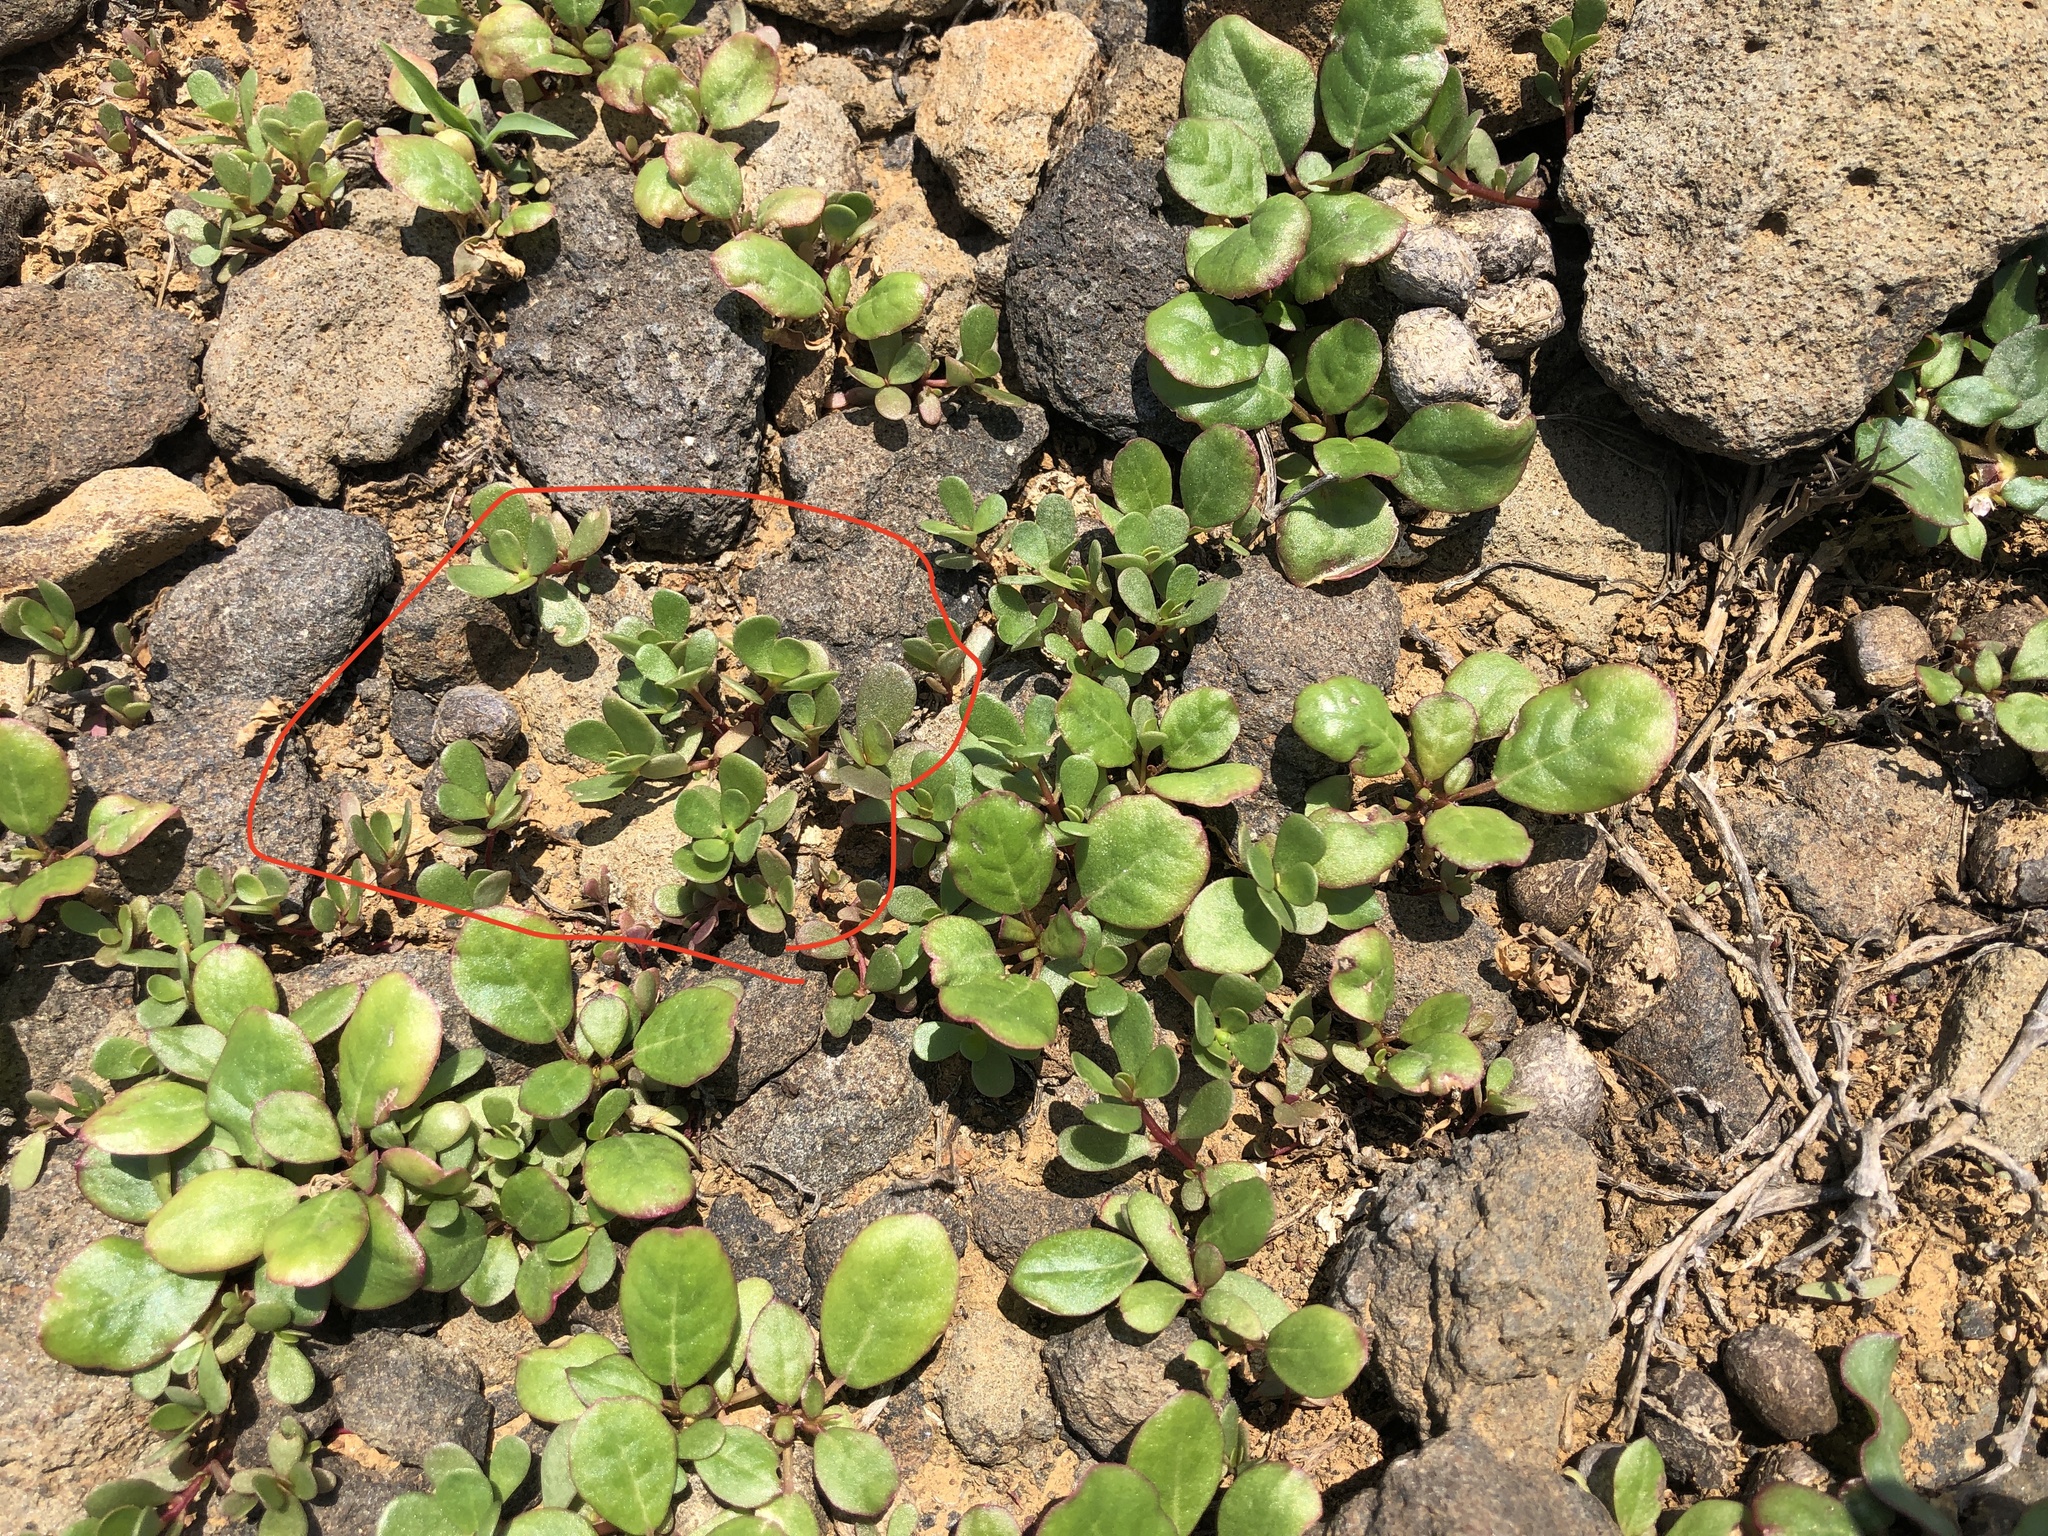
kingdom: Plantae
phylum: Tracheophyta
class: Magnoliopsida
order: Caryophyllales
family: Portulacaceae
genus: Portulaca
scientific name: Portulaca oleracea
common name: Common purslane
